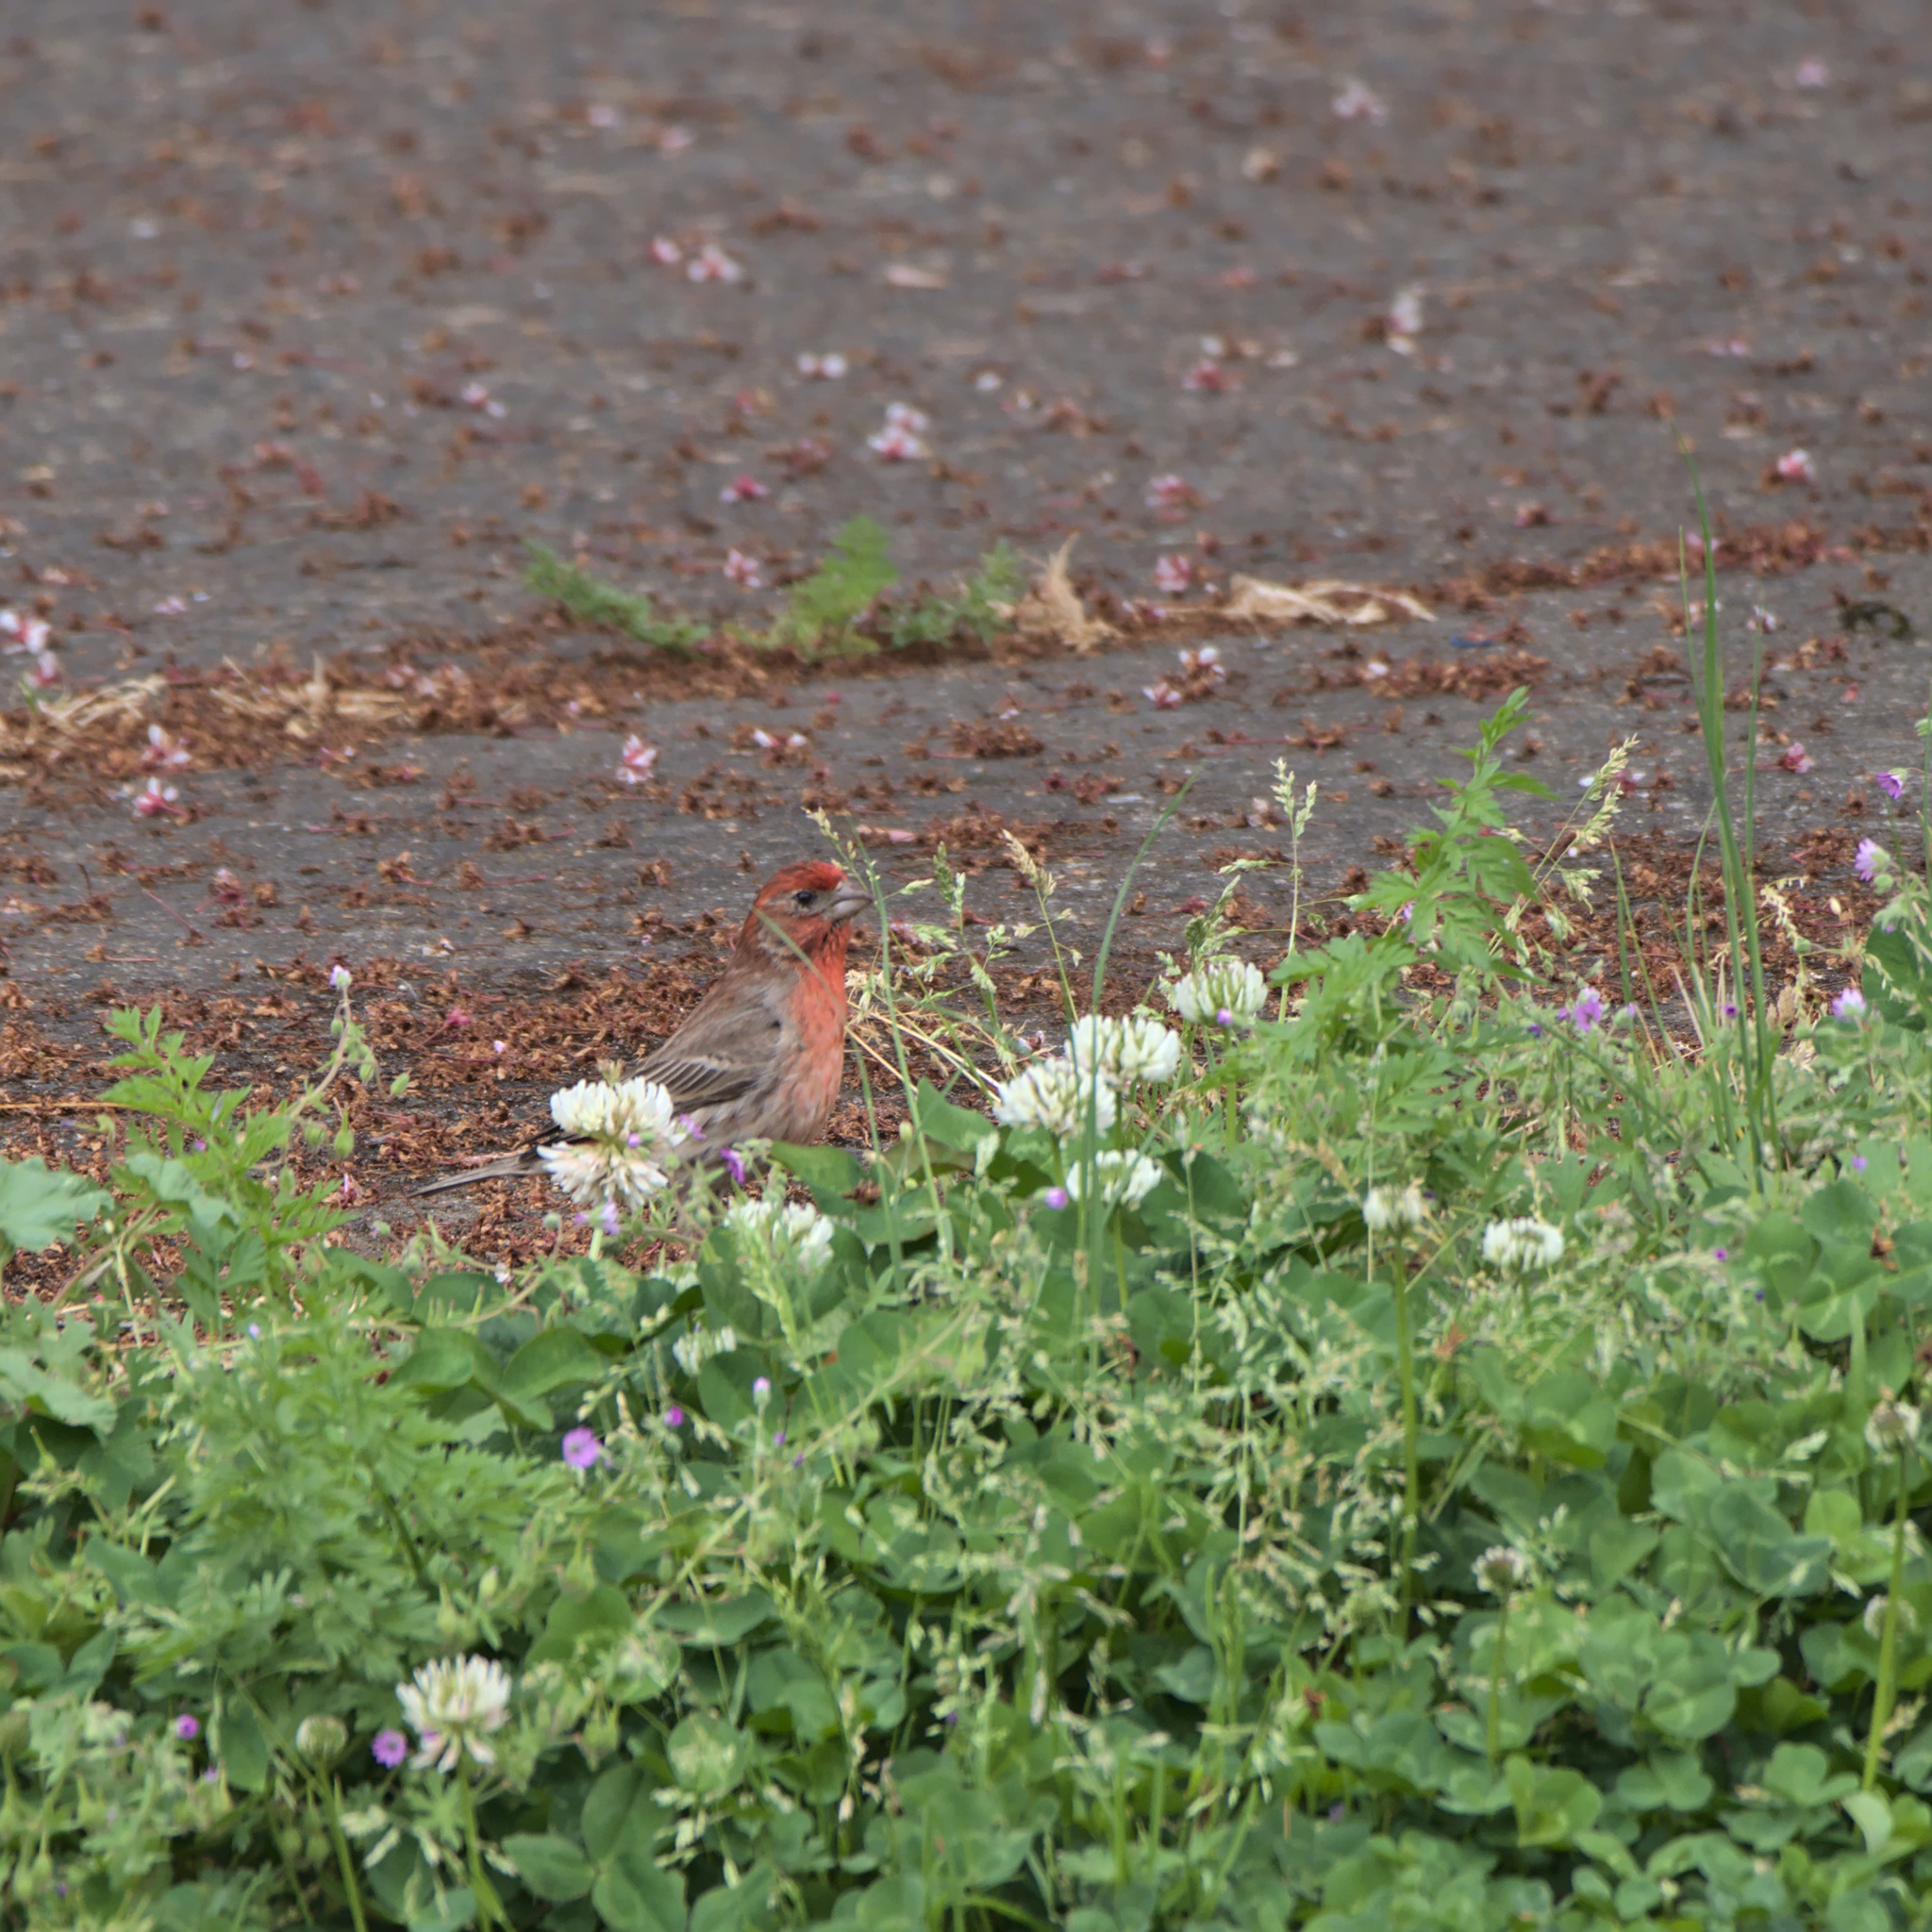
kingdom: Animalia
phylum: Chordata
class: Aves
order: Passeriformes
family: Fringillidae
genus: Haemorhous
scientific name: Haemorhous mexicanus
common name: House finch
